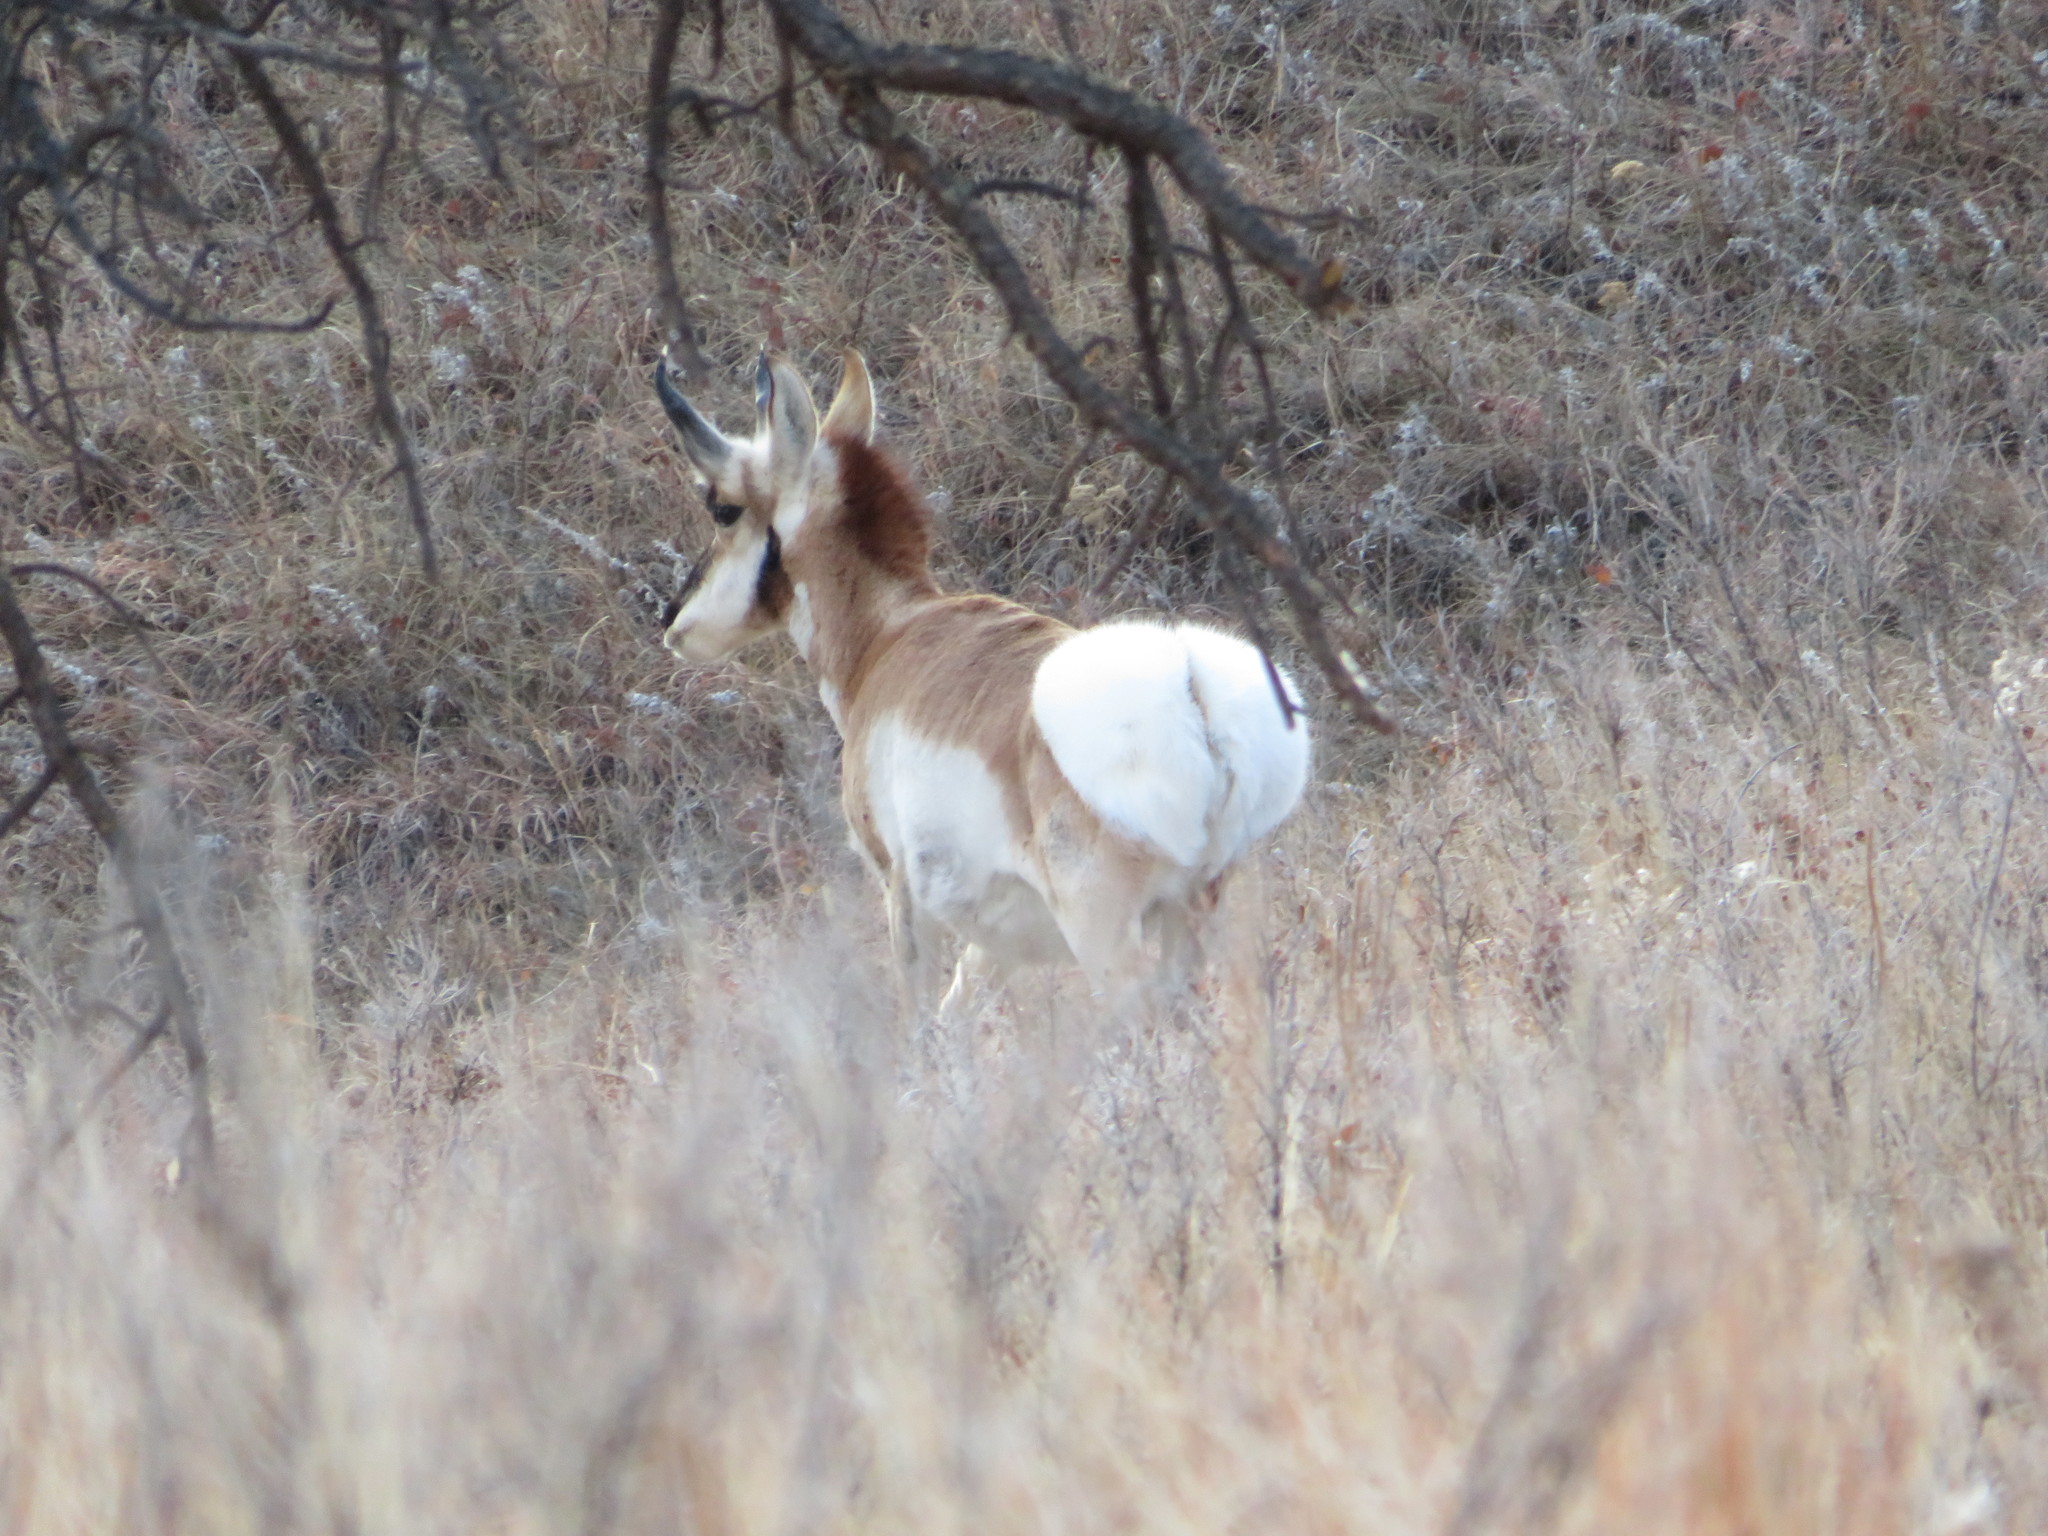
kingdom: Animalia
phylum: Chordata
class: Mammalia
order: Artiodactyla
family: Antilocapridae
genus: Antilocapra
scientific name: Antilocapra americana
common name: Pronghorn
